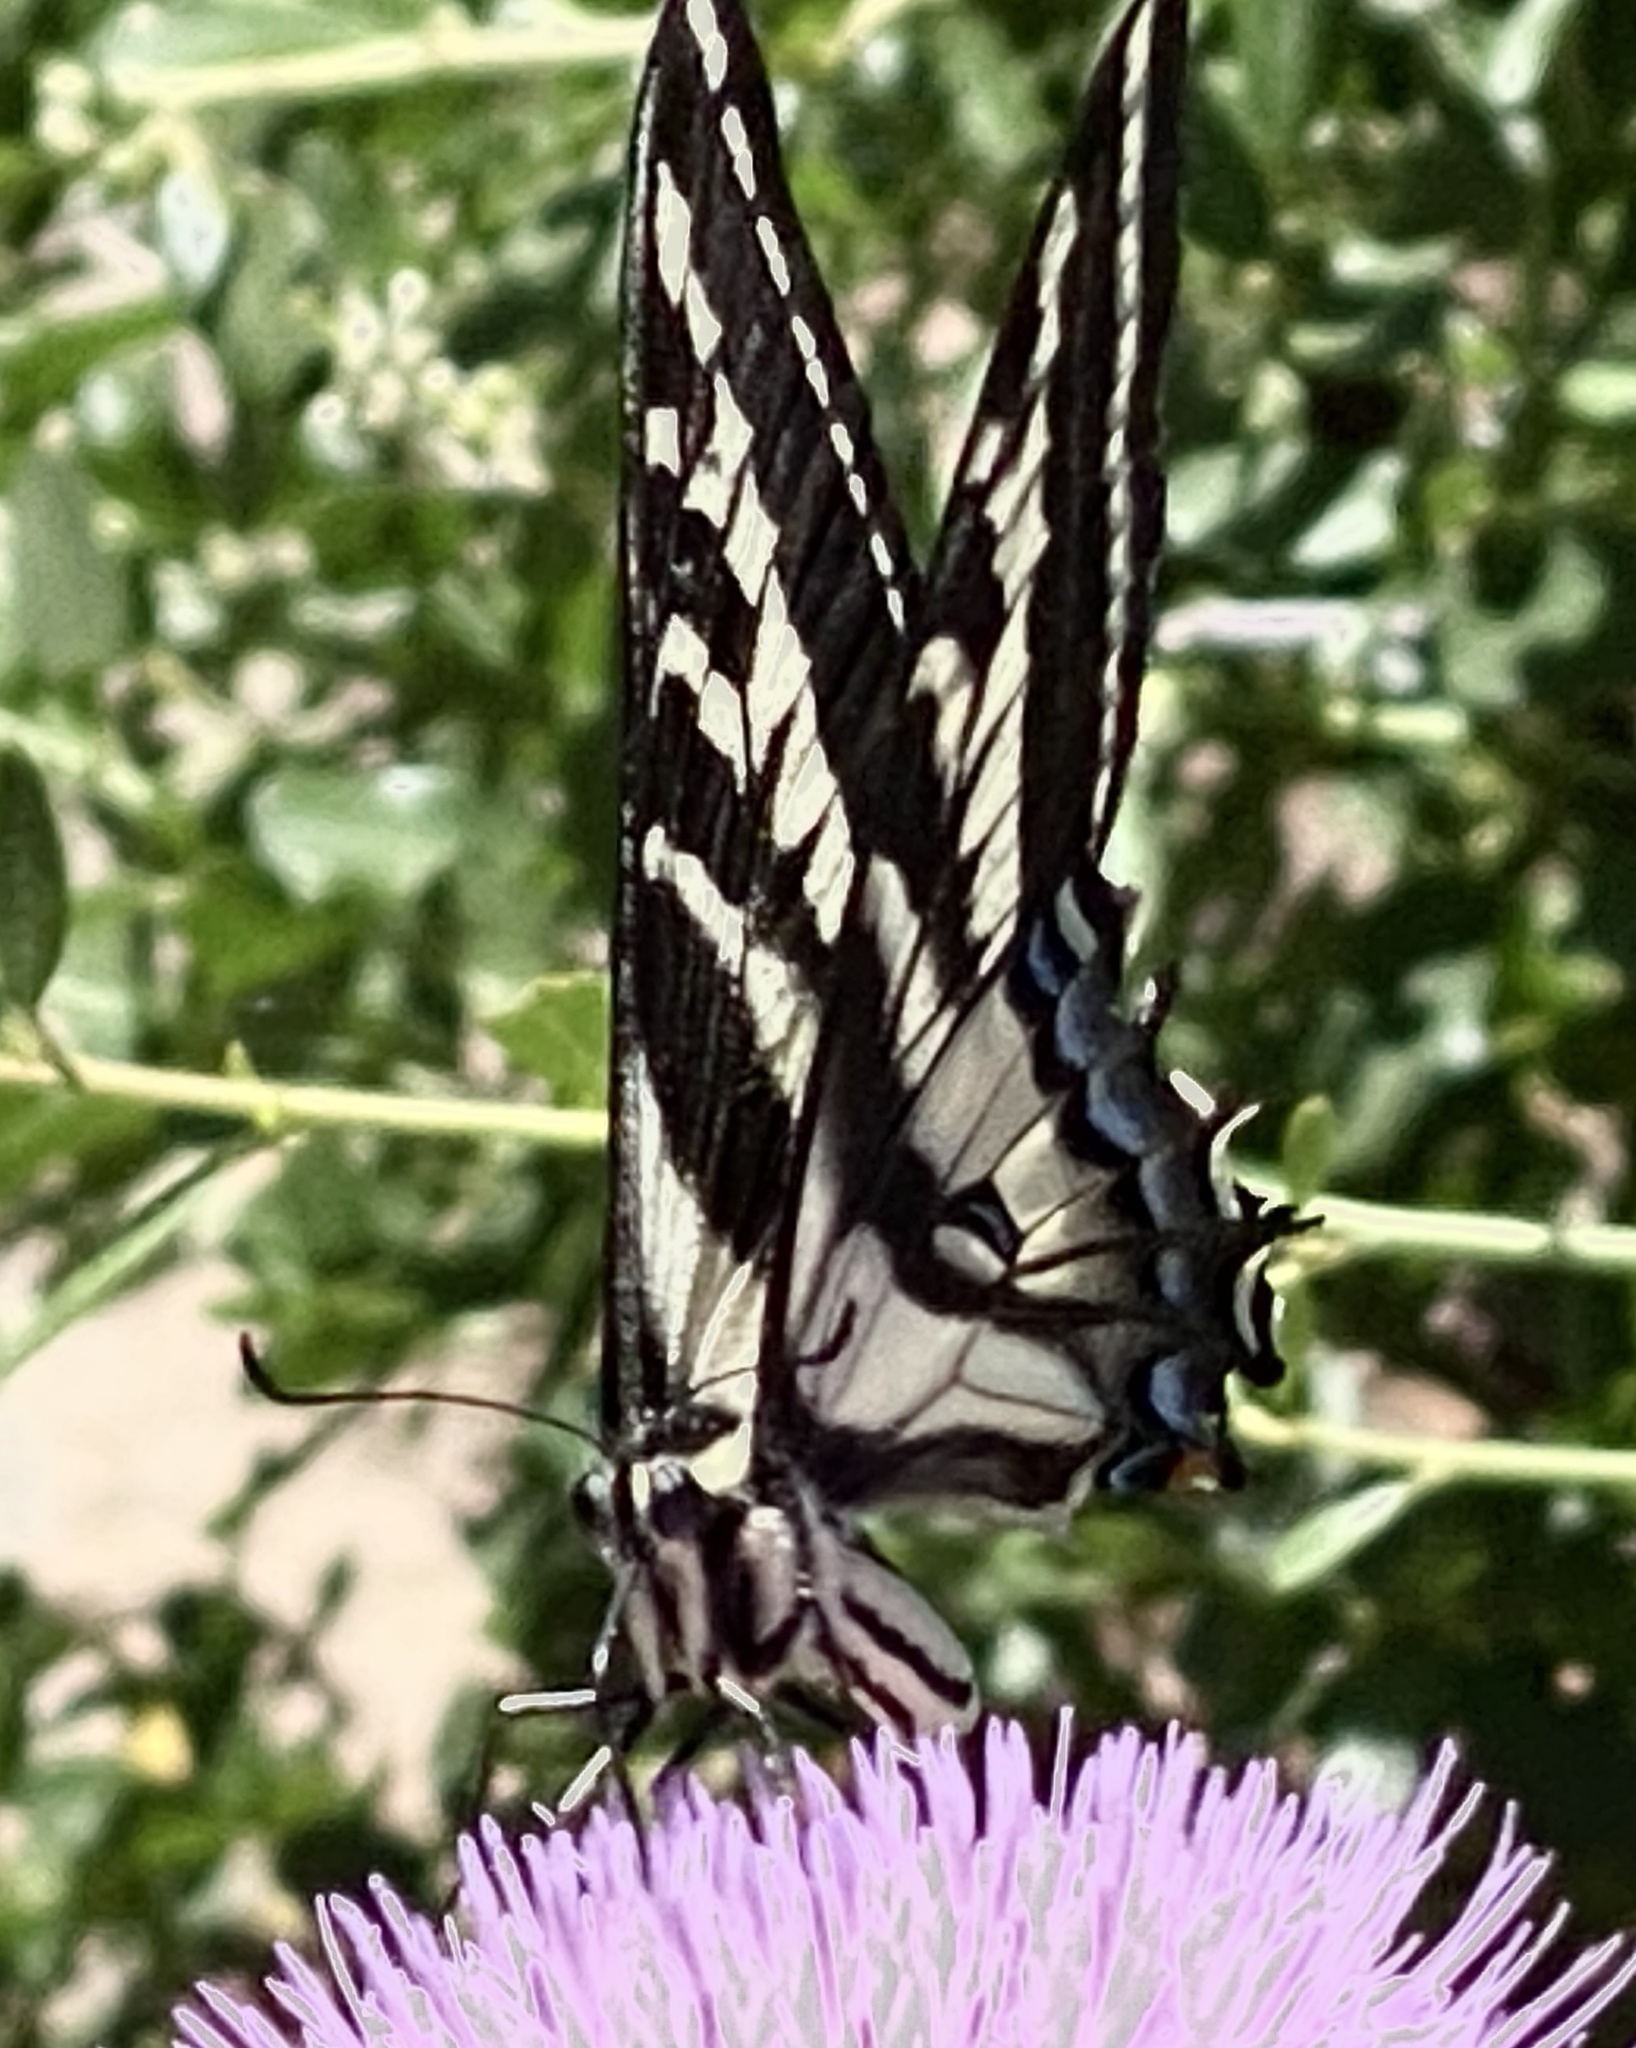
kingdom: Animalia
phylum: Arthropoda
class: Insecta
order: Lepidoptera
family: Papilionidae
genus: Papilio
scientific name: Papilio eurymedon
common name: Pale tiger swallowtail
